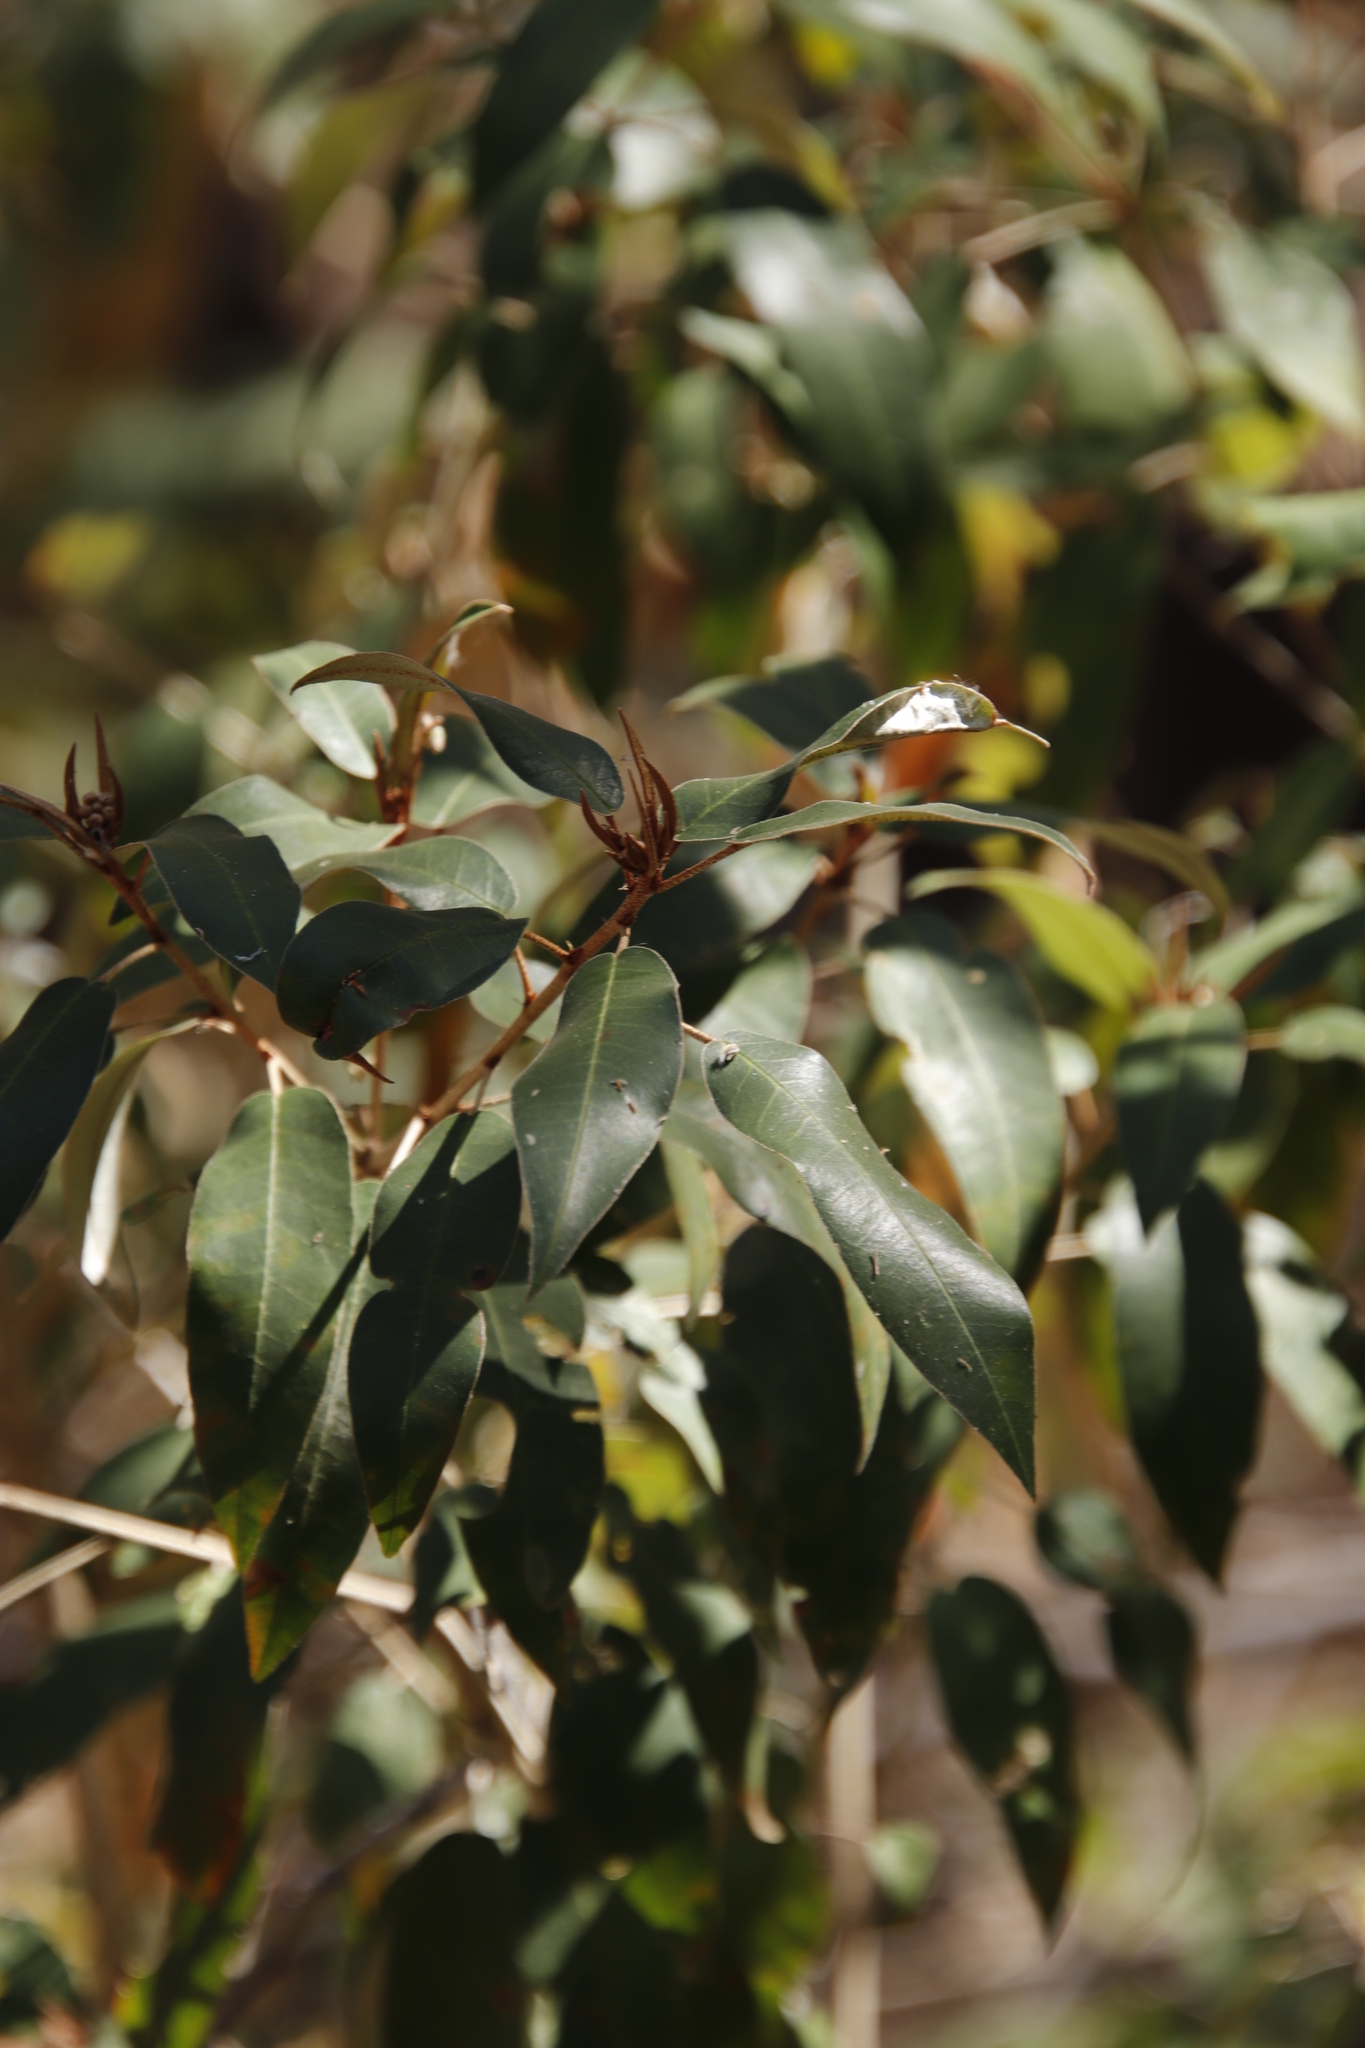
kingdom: Plantae
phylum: Tracheophyta
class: Magnoliopsida
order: Malpighiales
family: Euphorbiaceae
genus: Croton
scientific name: Croton gratissimus
